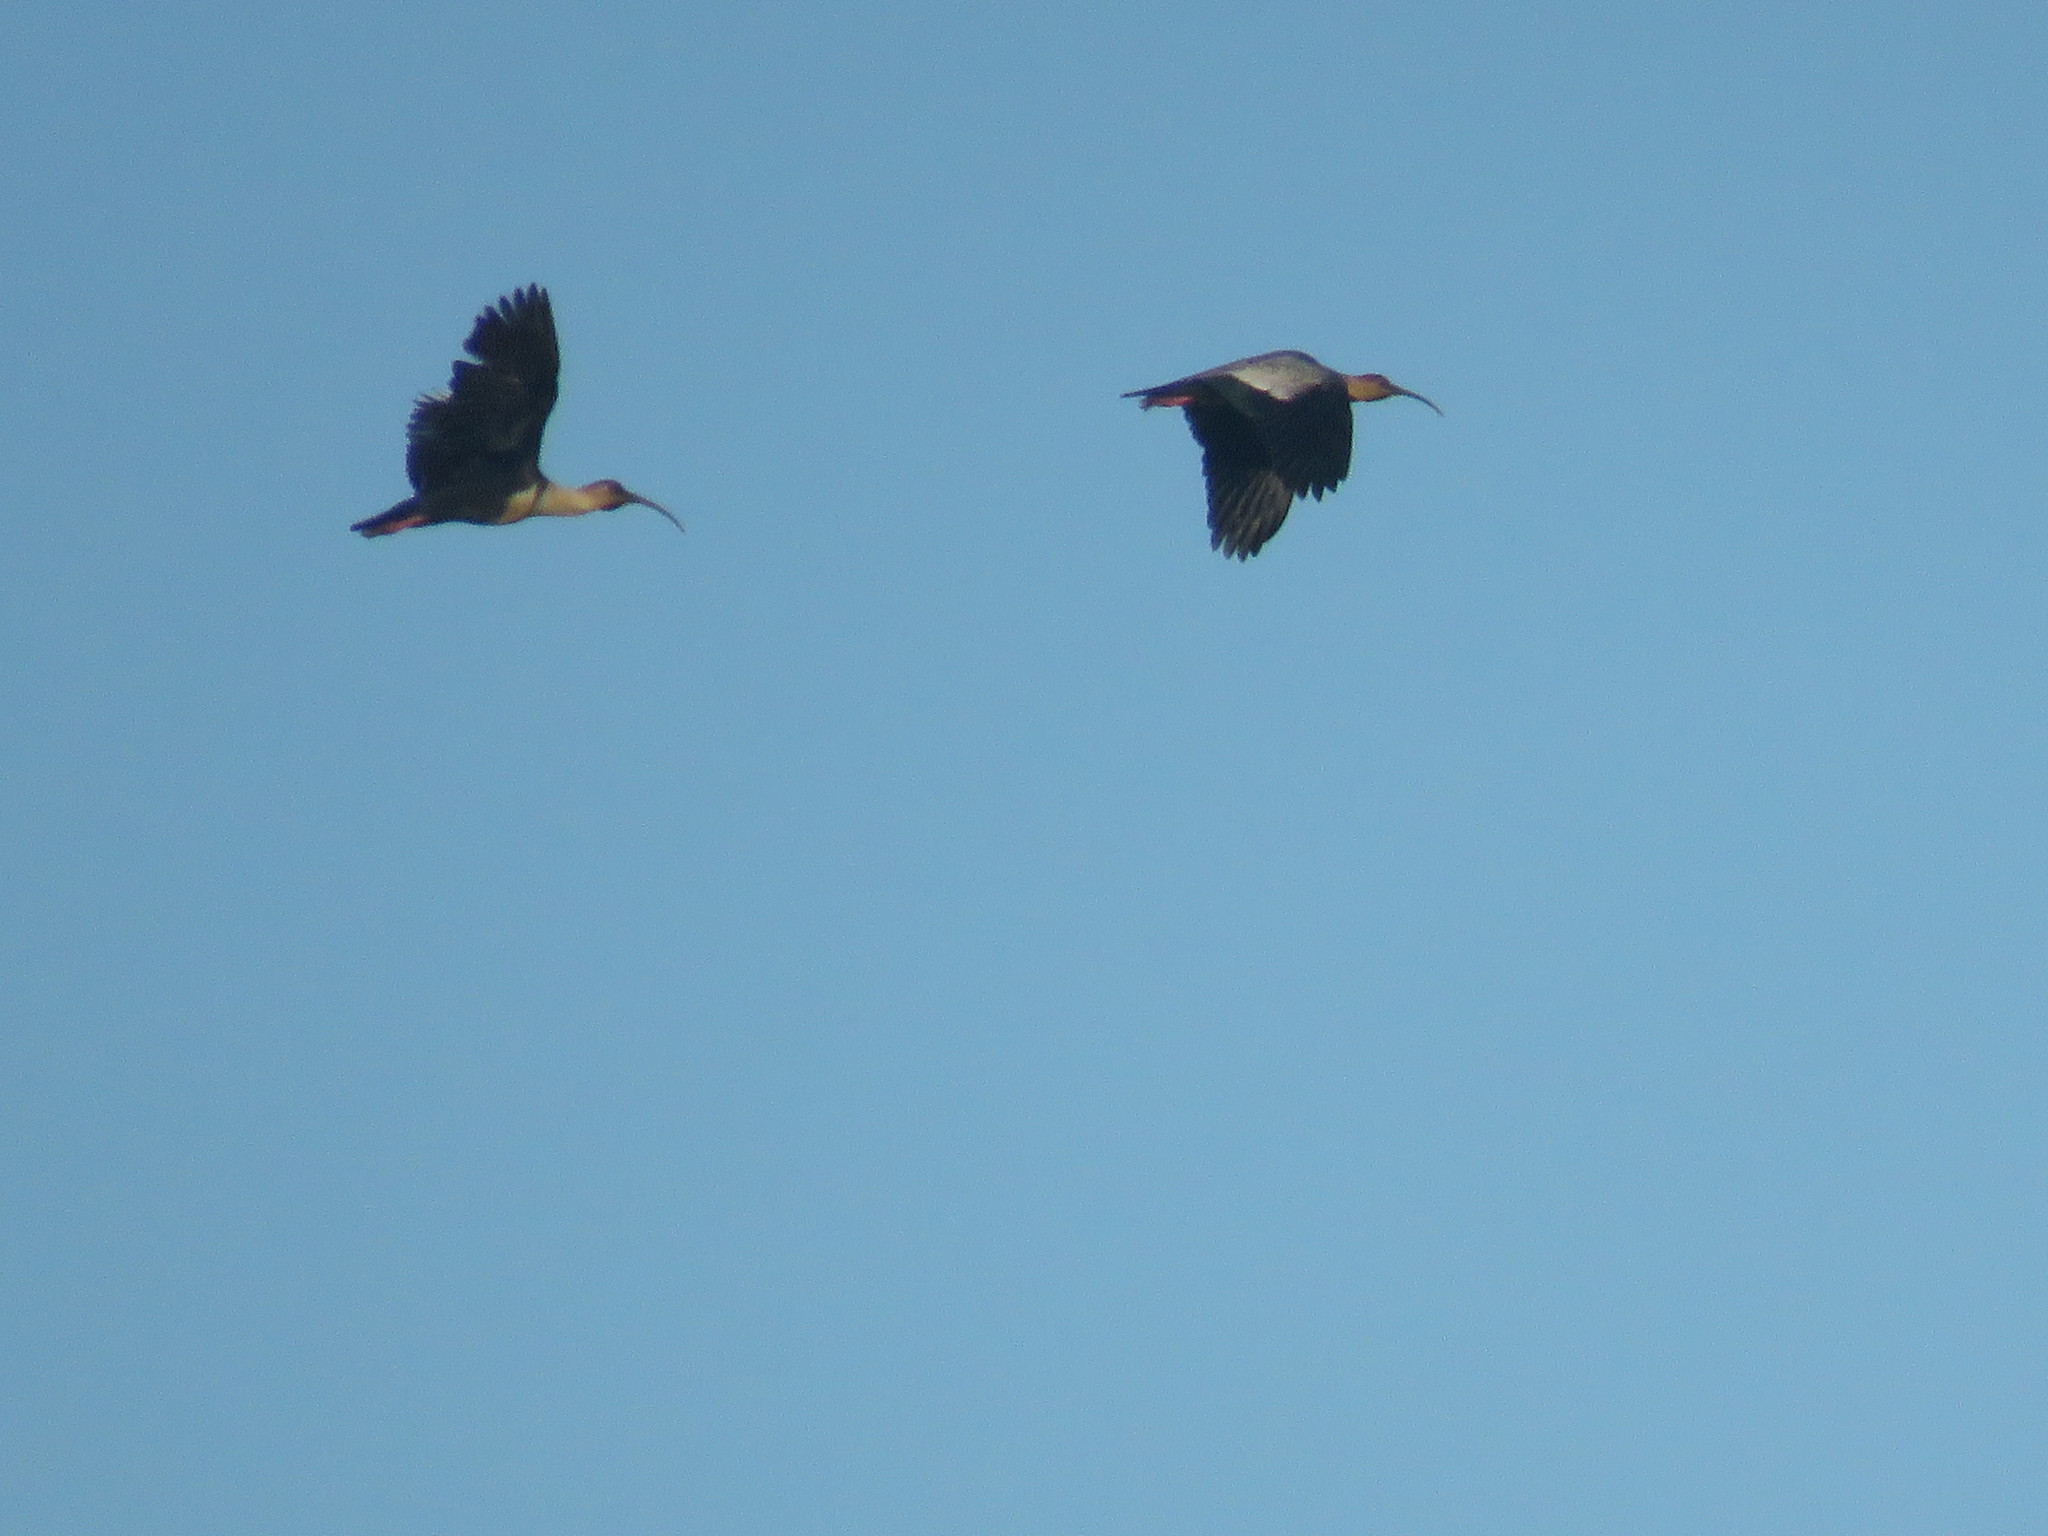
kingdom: Animalia
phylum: Chordata
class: Aves
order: Pelecaniformes
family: Threskiornithidae
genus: Theristicus
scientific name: Theristicus melanopis
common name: Black-faced ibis
